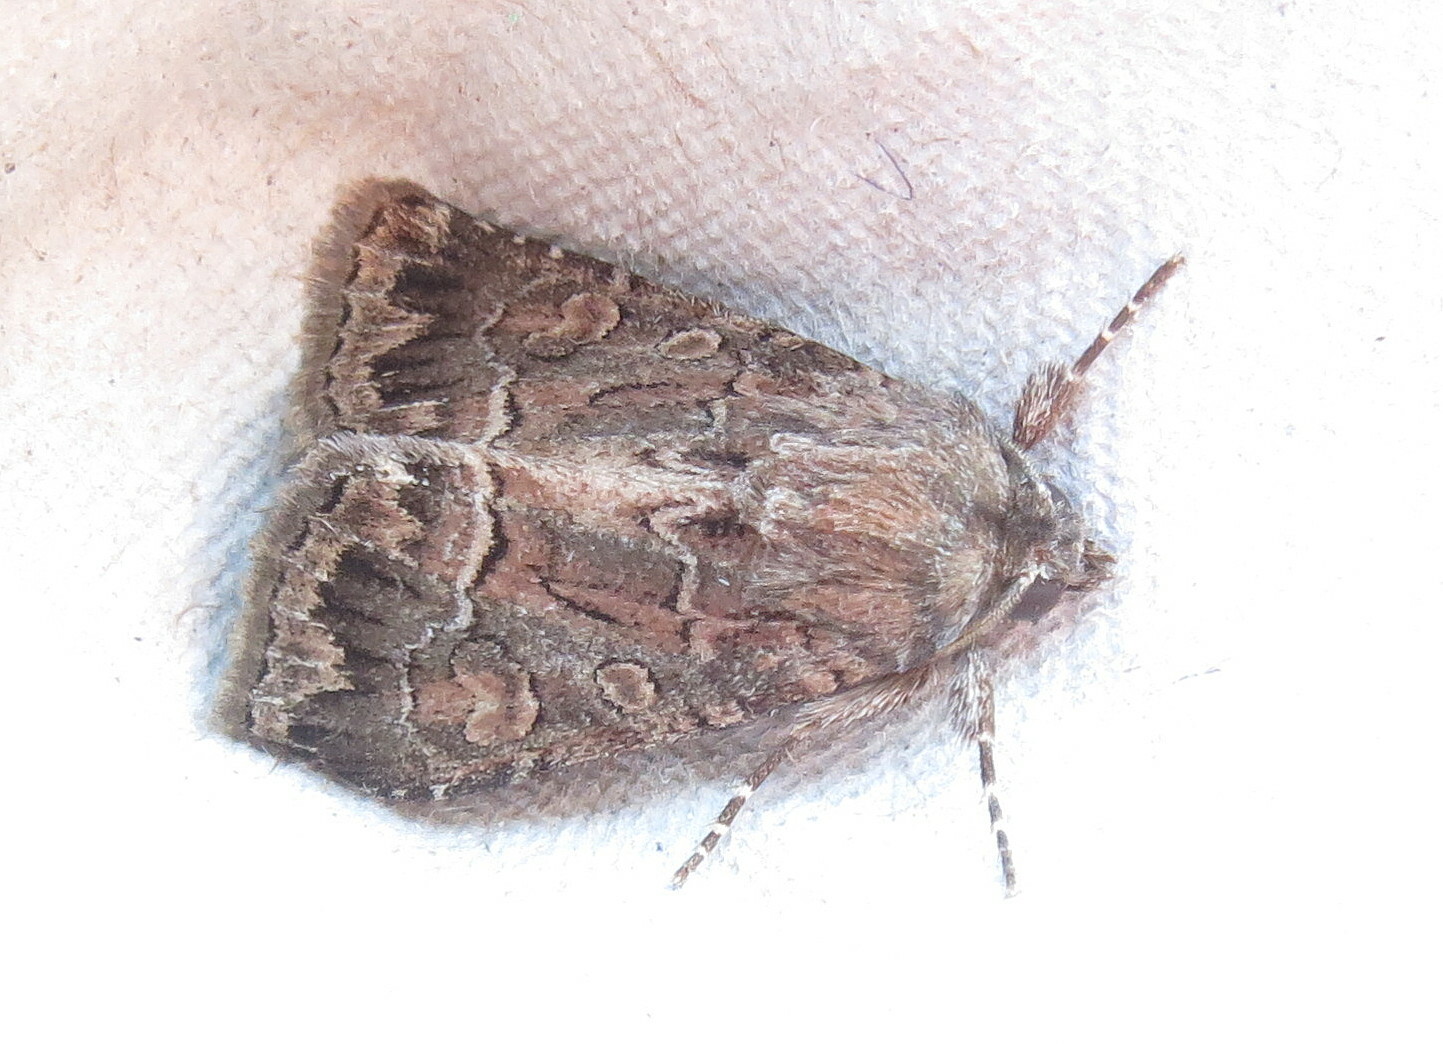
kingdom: Animalia
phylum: Arthropoda
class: Insecta
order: Lepidoptera
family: Noctuidae
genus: Thalpophila
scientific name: Thalpophila matura
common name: Straw underwing
